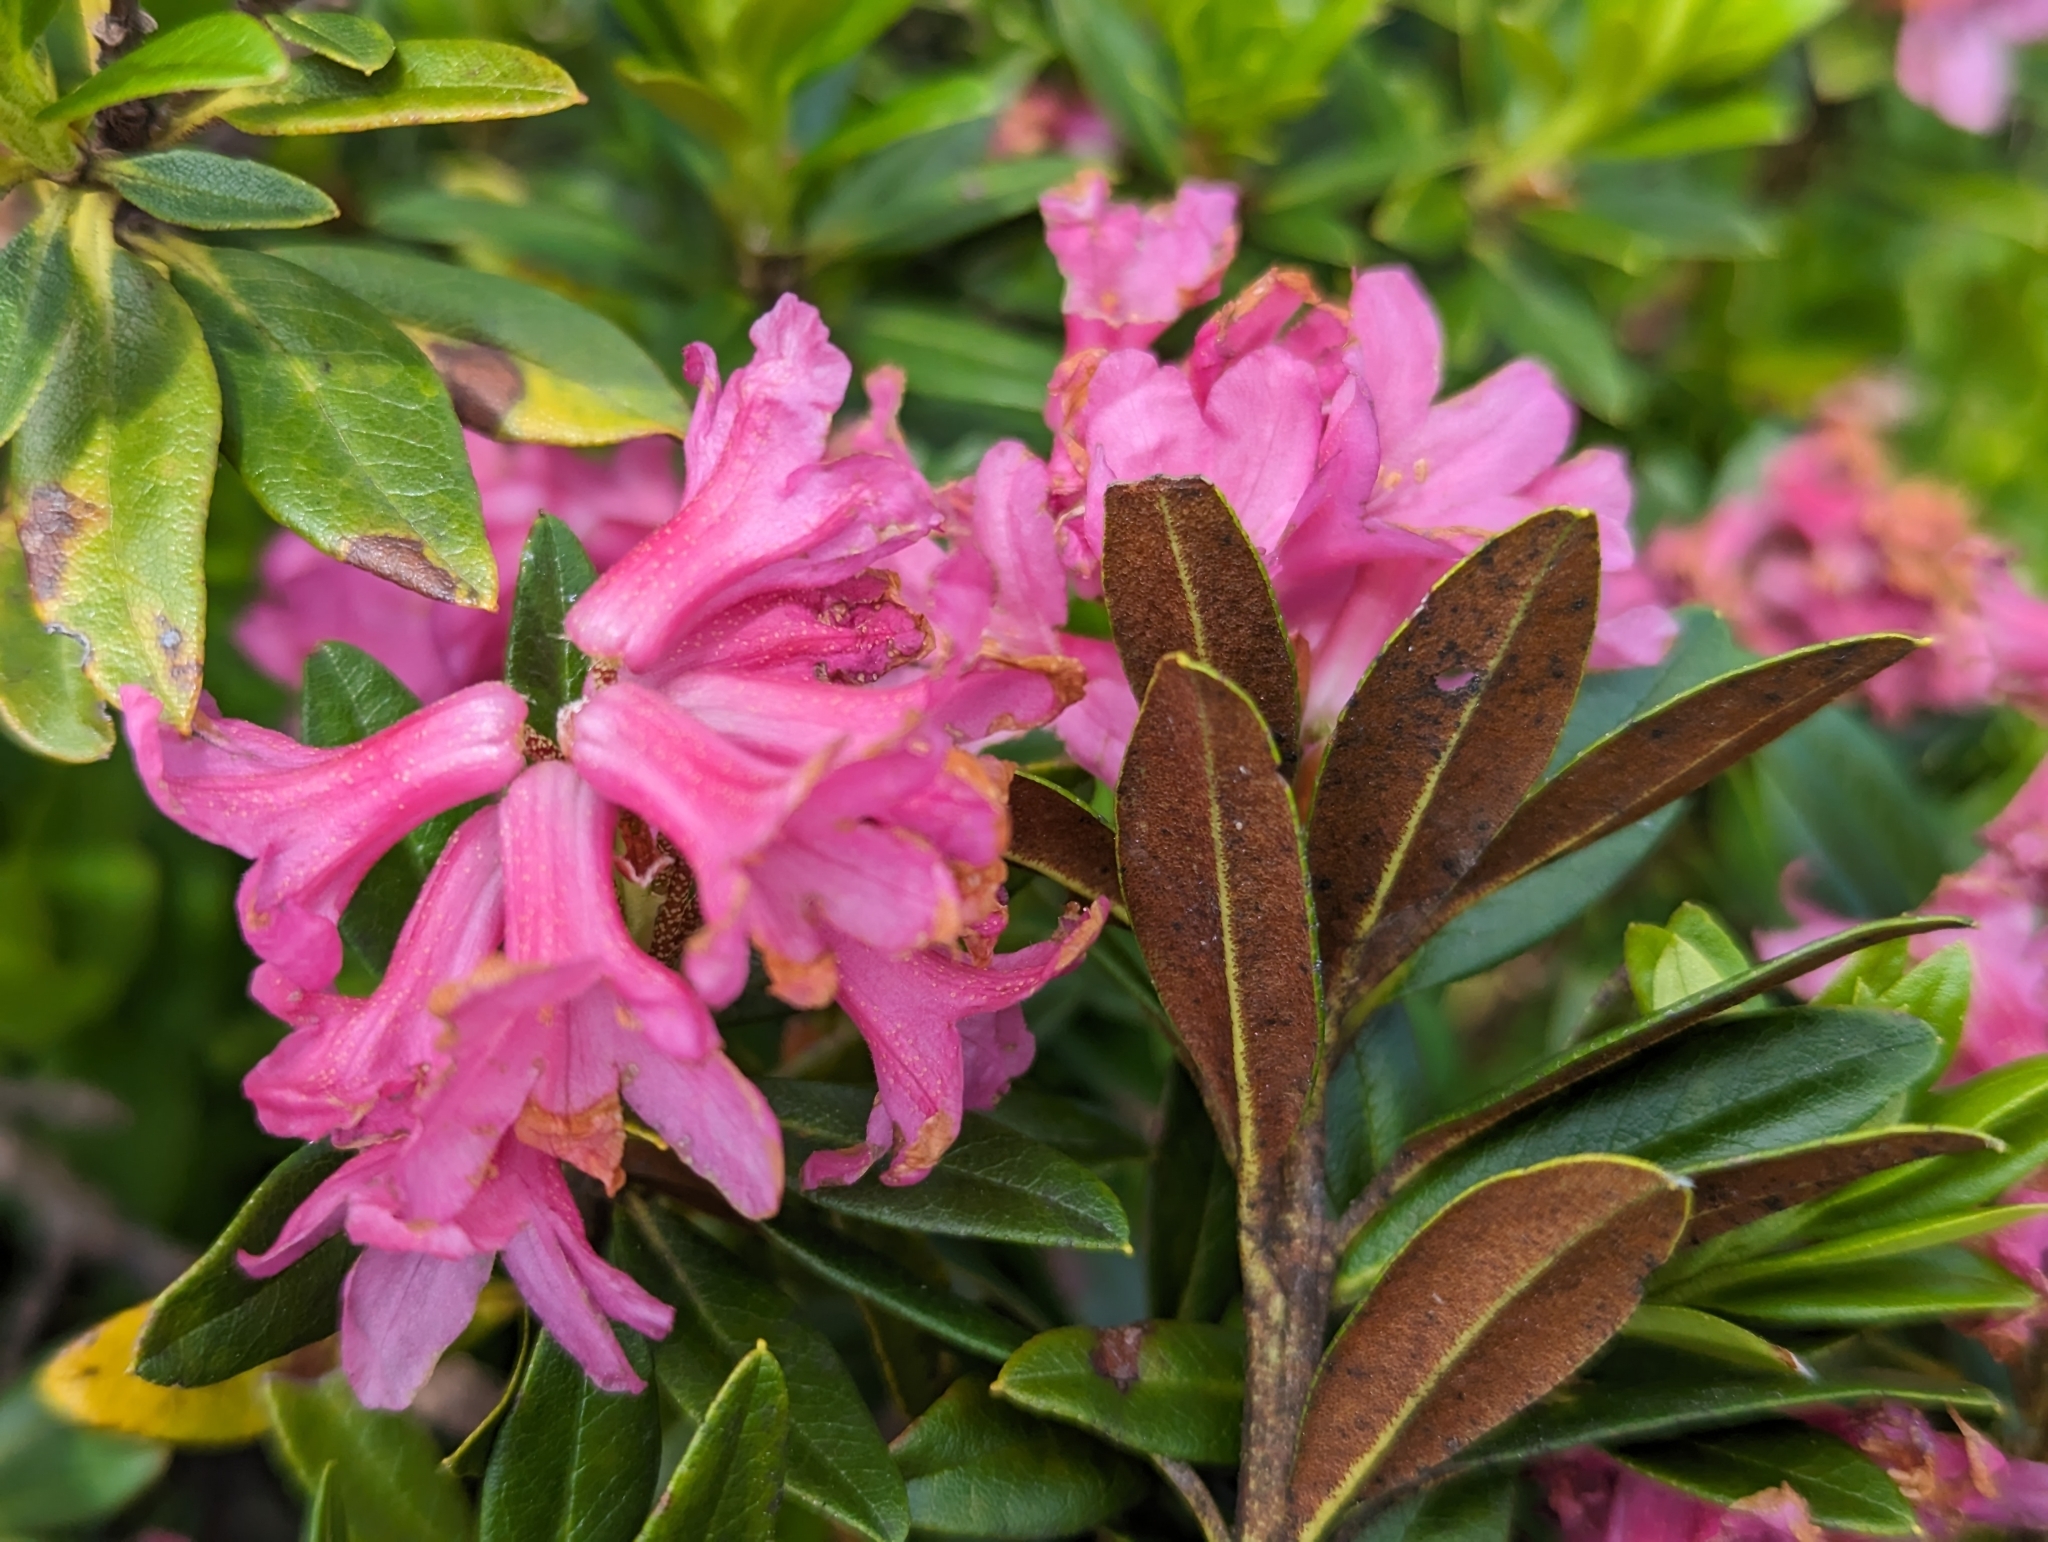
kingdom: Plantae
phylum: Tracheophyta
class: Magnoliopsida
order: Ericales
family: Ericaceae
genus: Rhododendron
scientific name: Rhododendron ferrugineum
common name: Alpenrose
